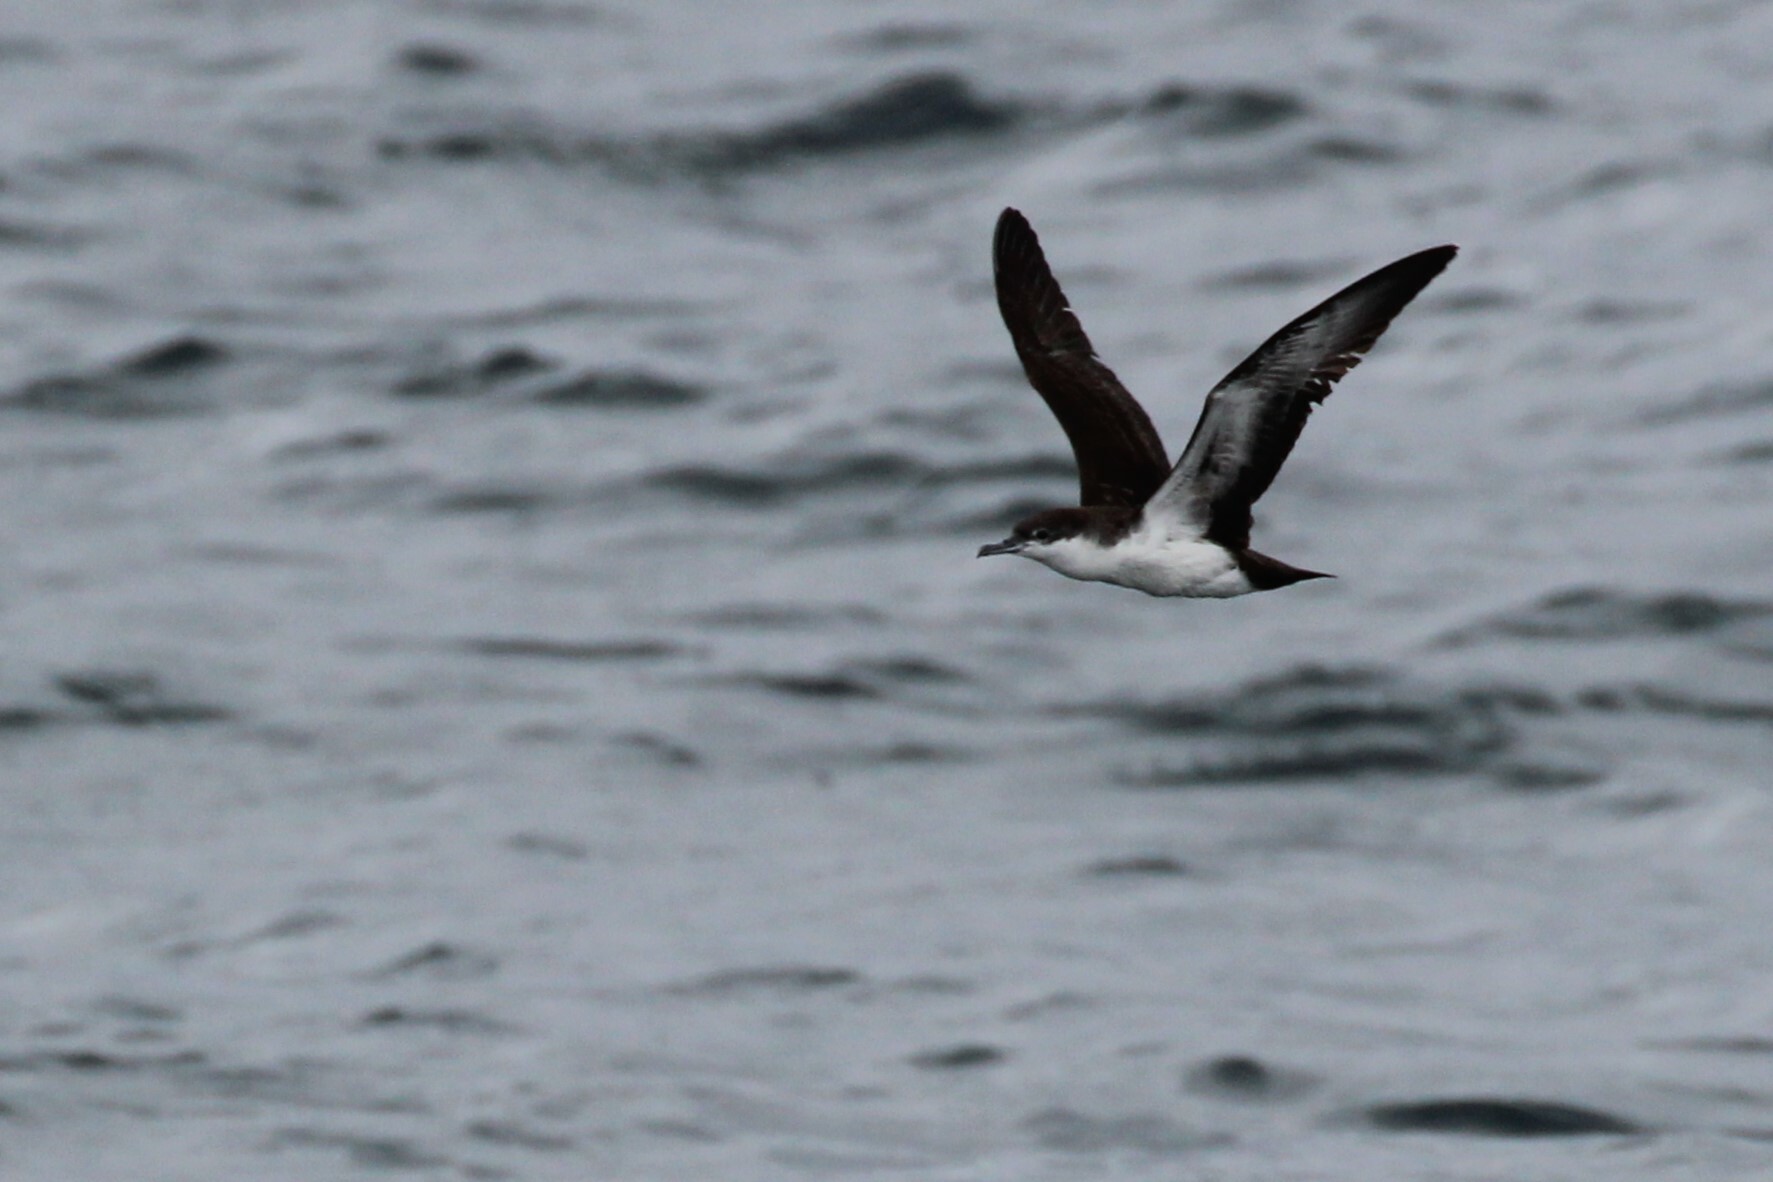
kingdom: Animalia
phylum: Chordata
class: Aves
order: Procellariiformes
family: Procellariidae
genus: Puffinus
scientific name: Puffinus subalaris
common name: Galapagos shearwater
